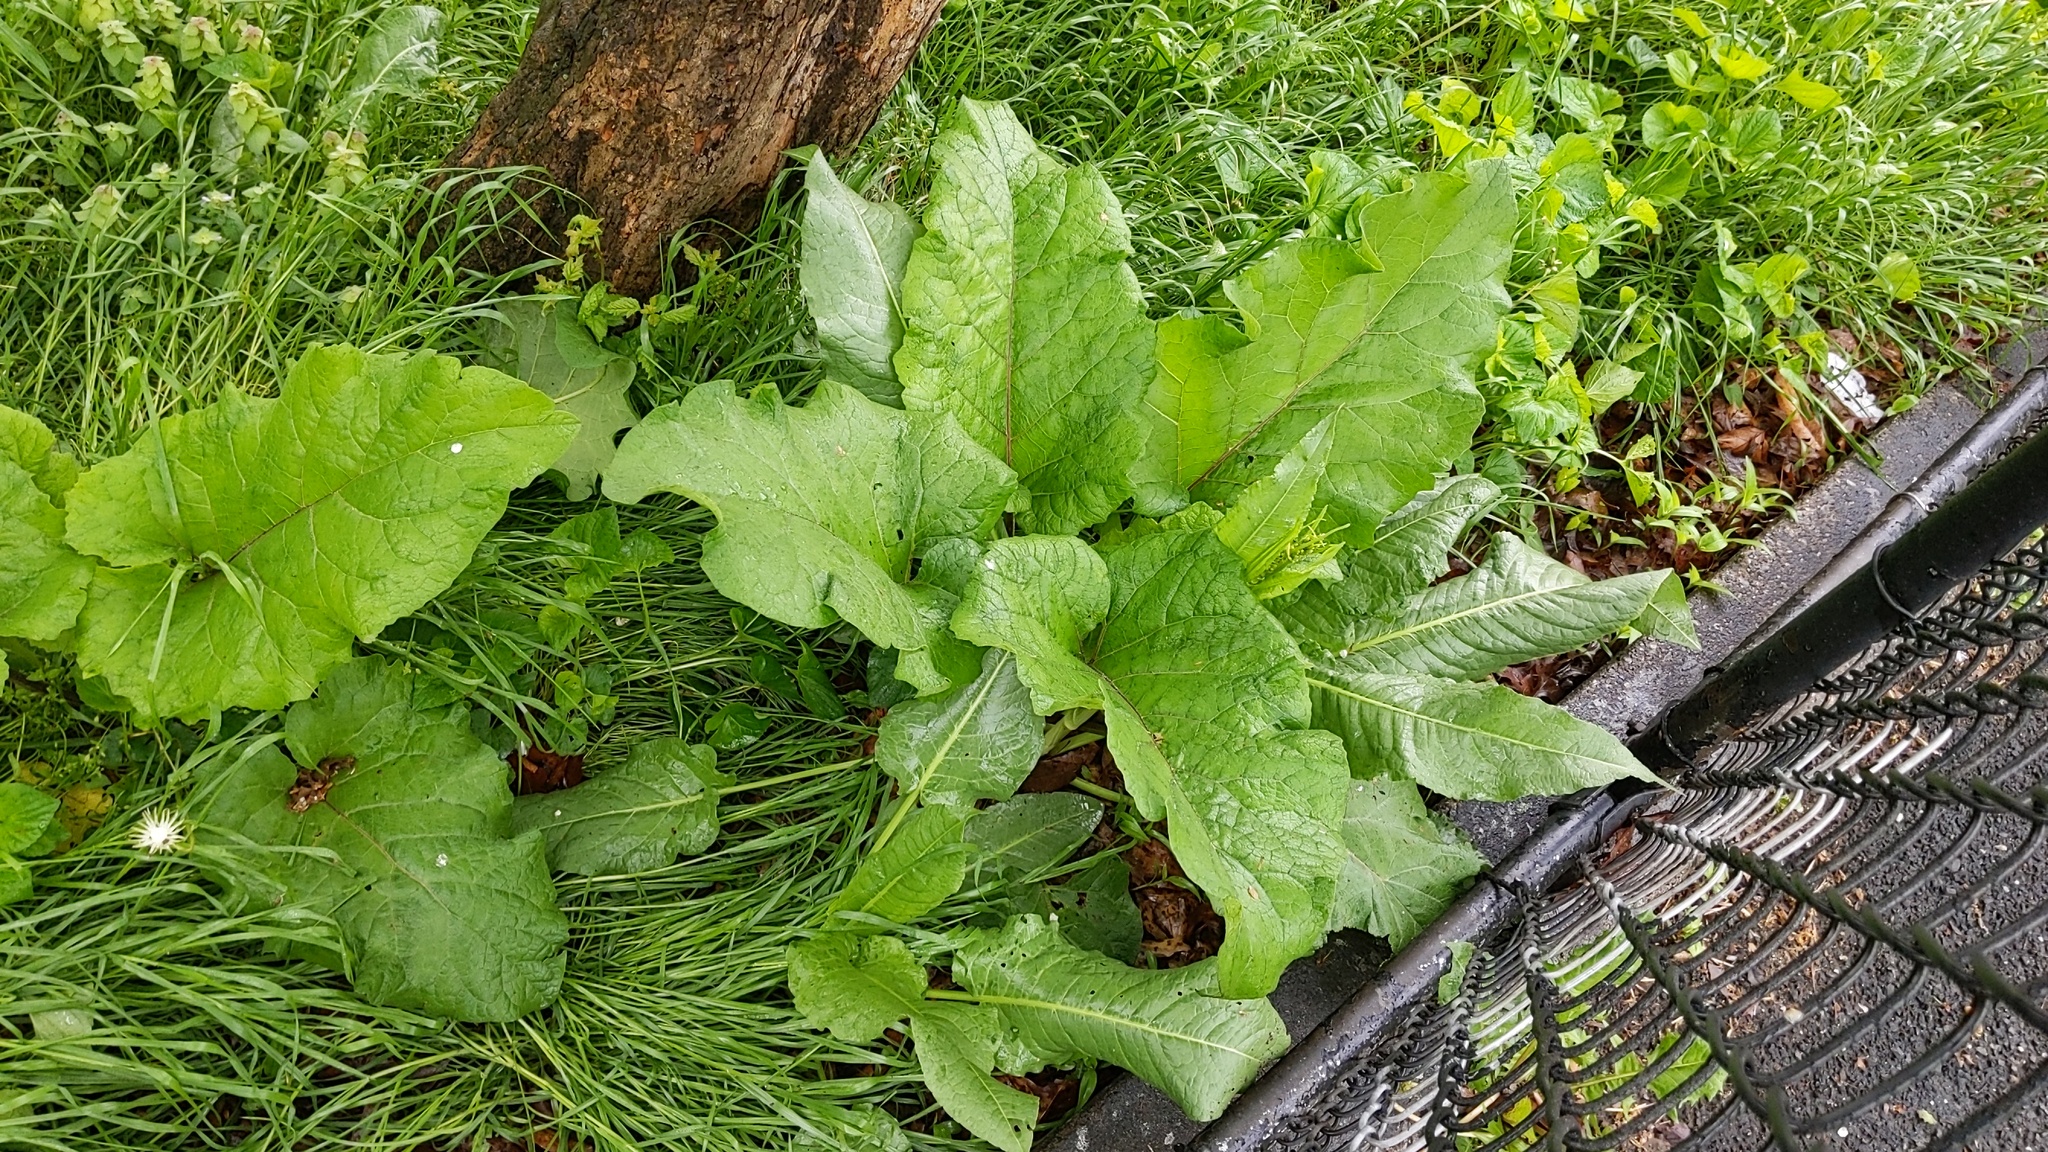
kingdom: Plantae
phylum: Tracheophyta
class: Magnoliopsida
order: Asterales
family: Asteraceae
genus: Arctium
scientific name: Arctium
